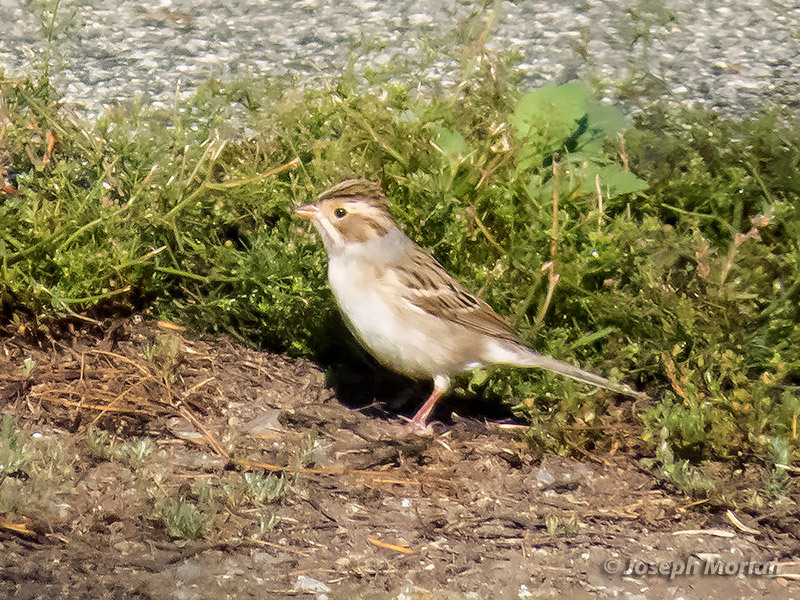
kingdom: Animalia
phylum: Chordata
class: Aves
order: Passeriformes
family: Passerellidae
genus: Spizella
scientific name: Spizella pallida
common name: Clay-colored sparrow
